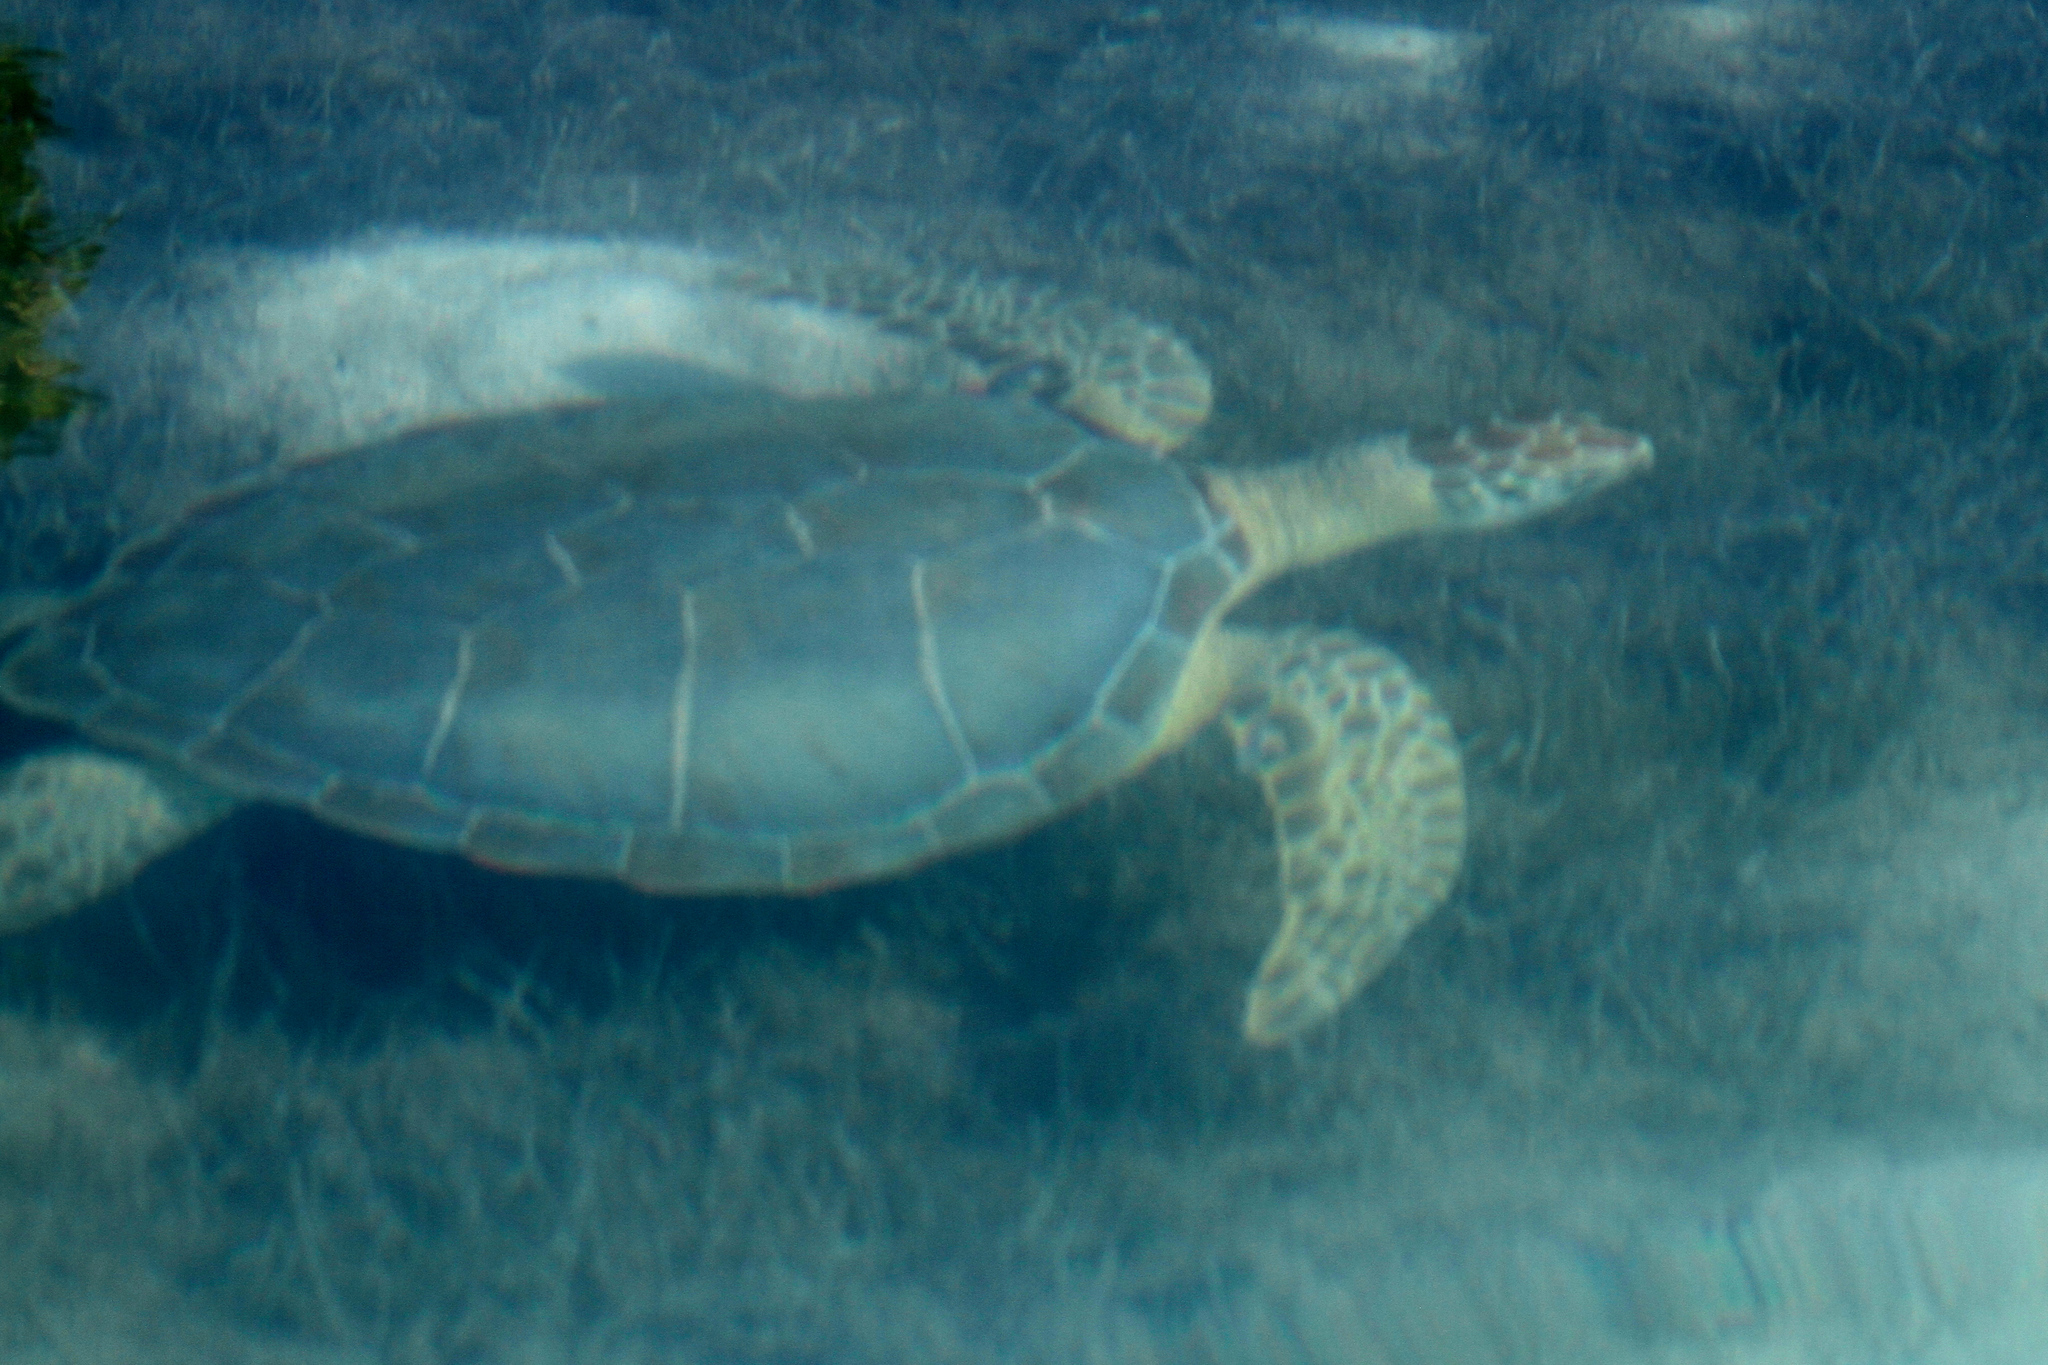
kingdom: Animalia
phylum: Chordata
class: Testudines
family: Cheloniidae
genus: Chelonia
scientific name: Chelonia mydas
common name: Green turtle
